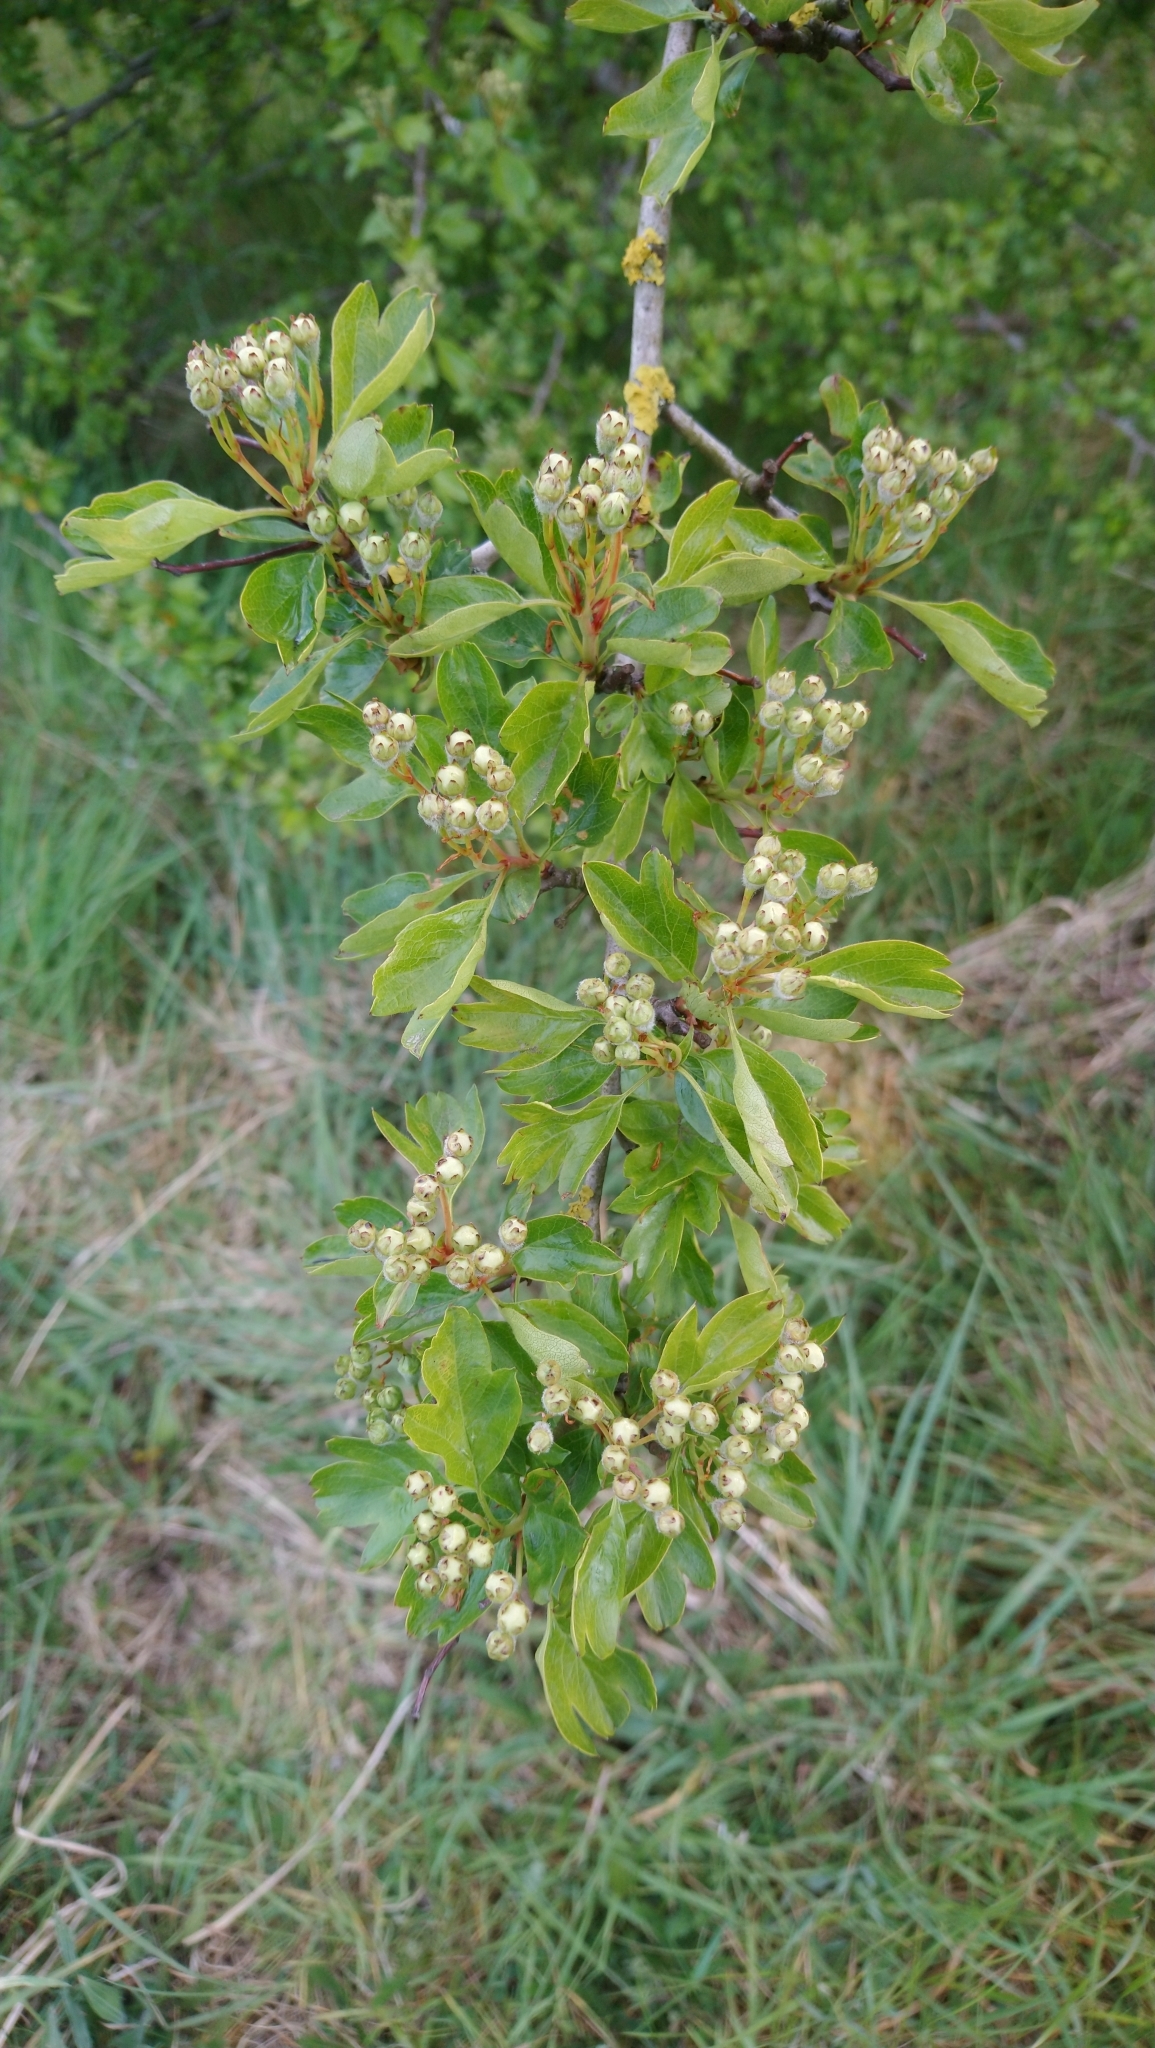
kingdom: Plantae
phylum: Tracheophyta
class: Magnoliopsida
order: Rosales
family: Rosaceae
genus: Crataegus
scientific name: Crataegus monogyna
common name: Hawthorn
